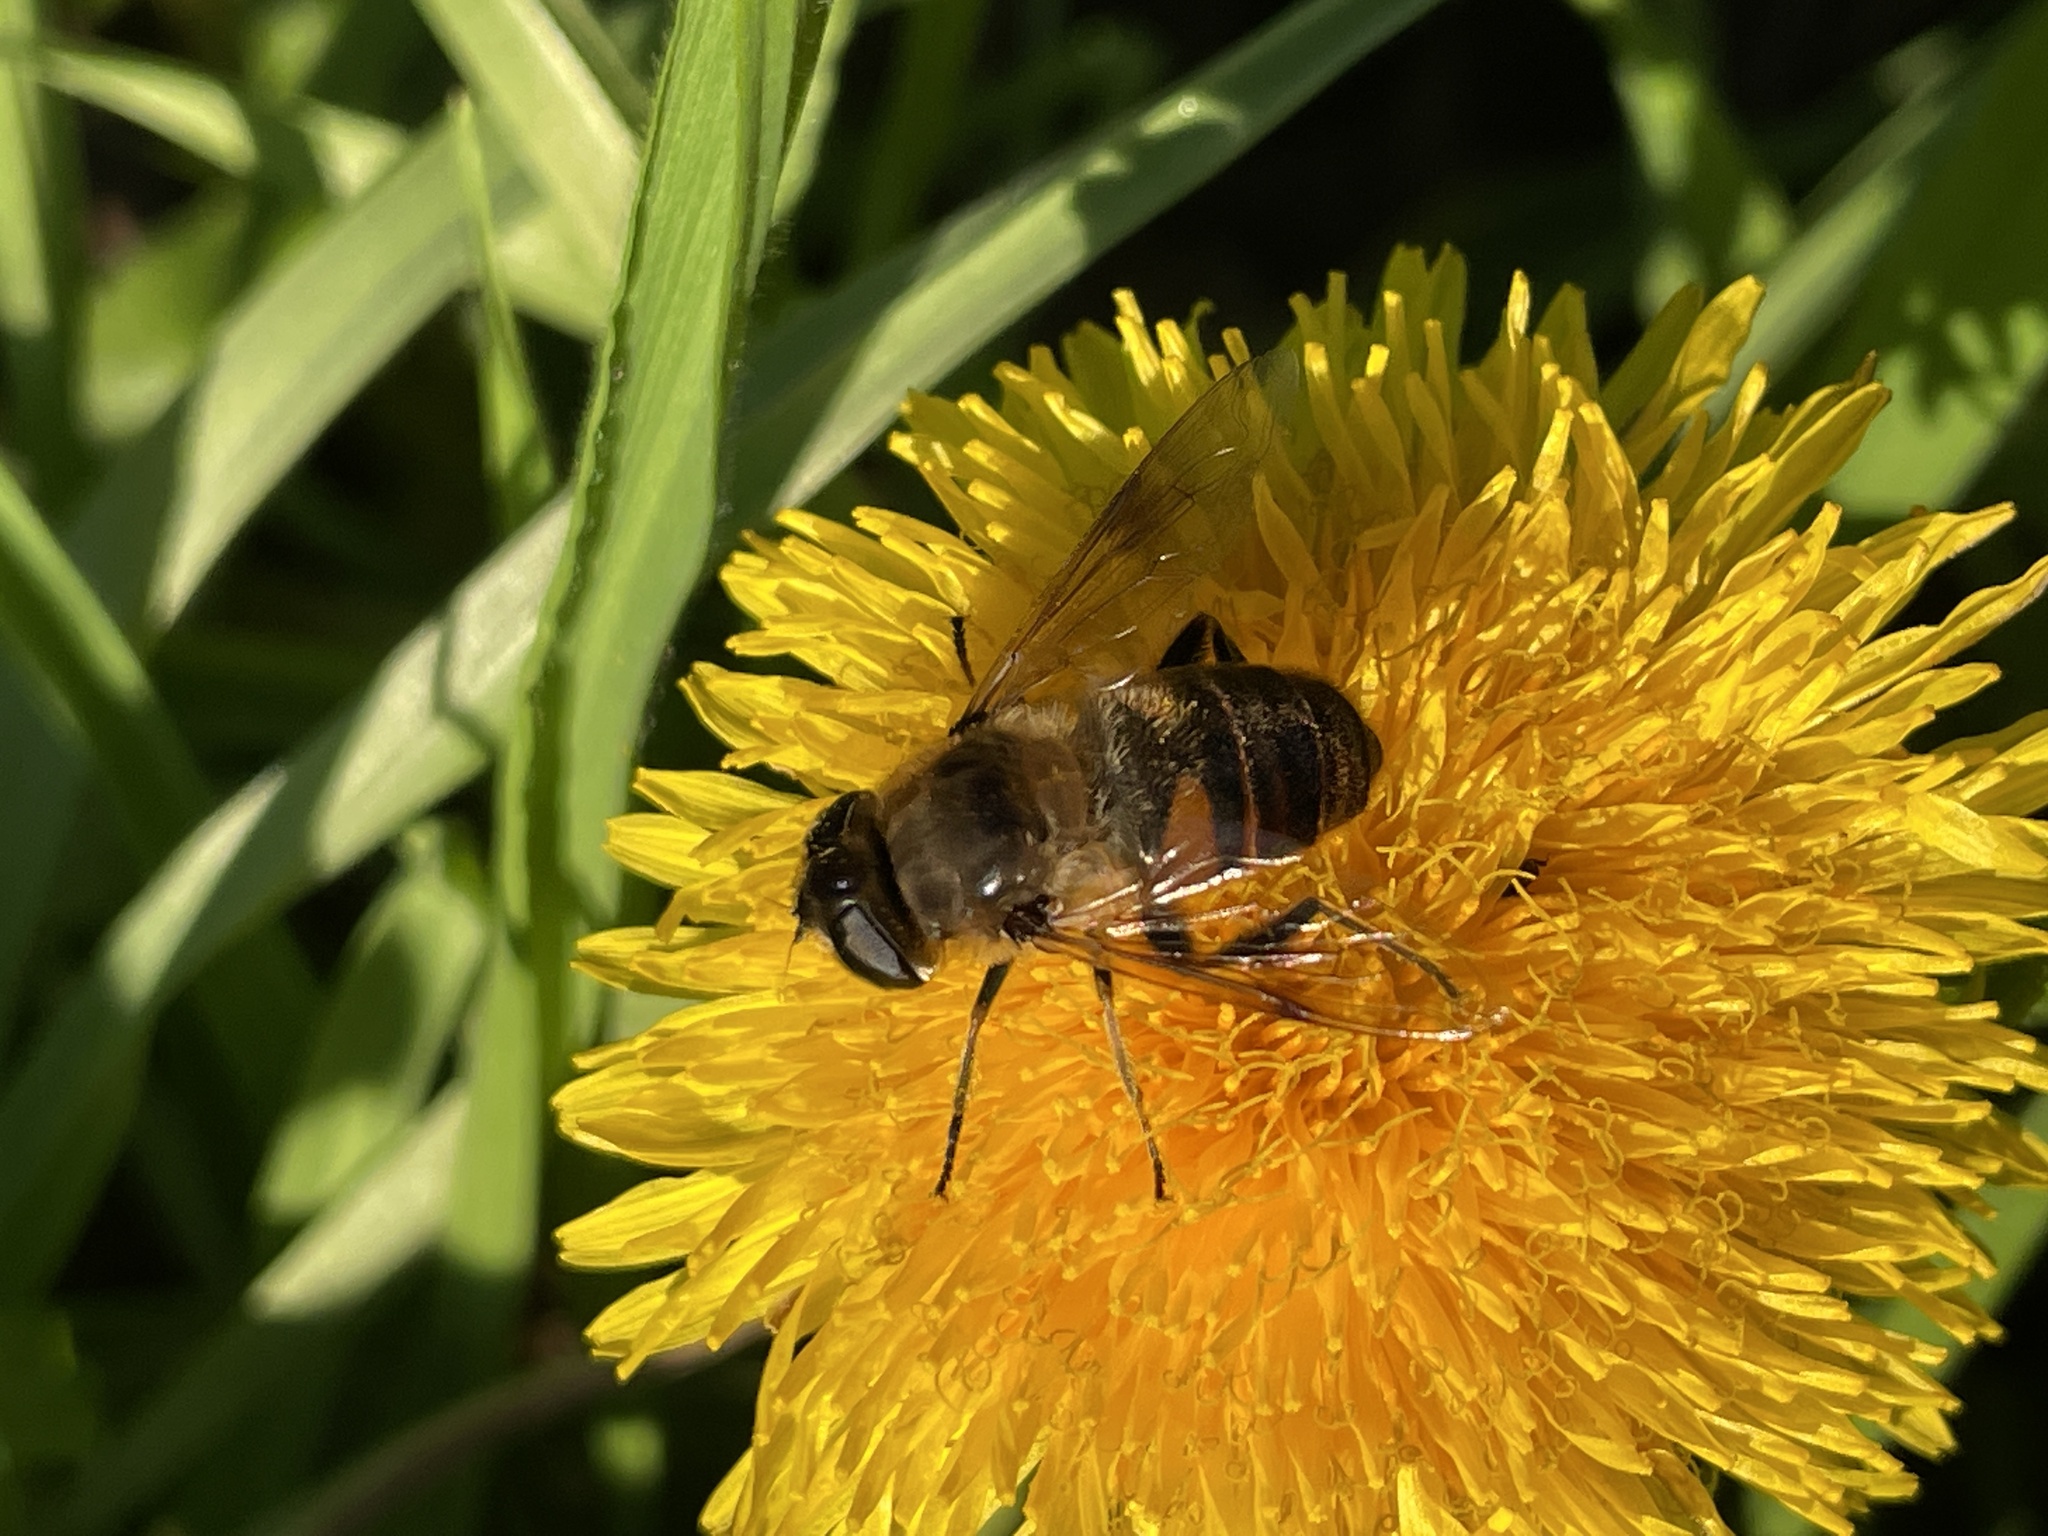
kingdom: Animalia
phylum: Arthropoda
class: Insecta
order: Diptera
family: Syrphidae
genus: Eristalis
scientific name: Eristalis tenax
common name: Drone fly
